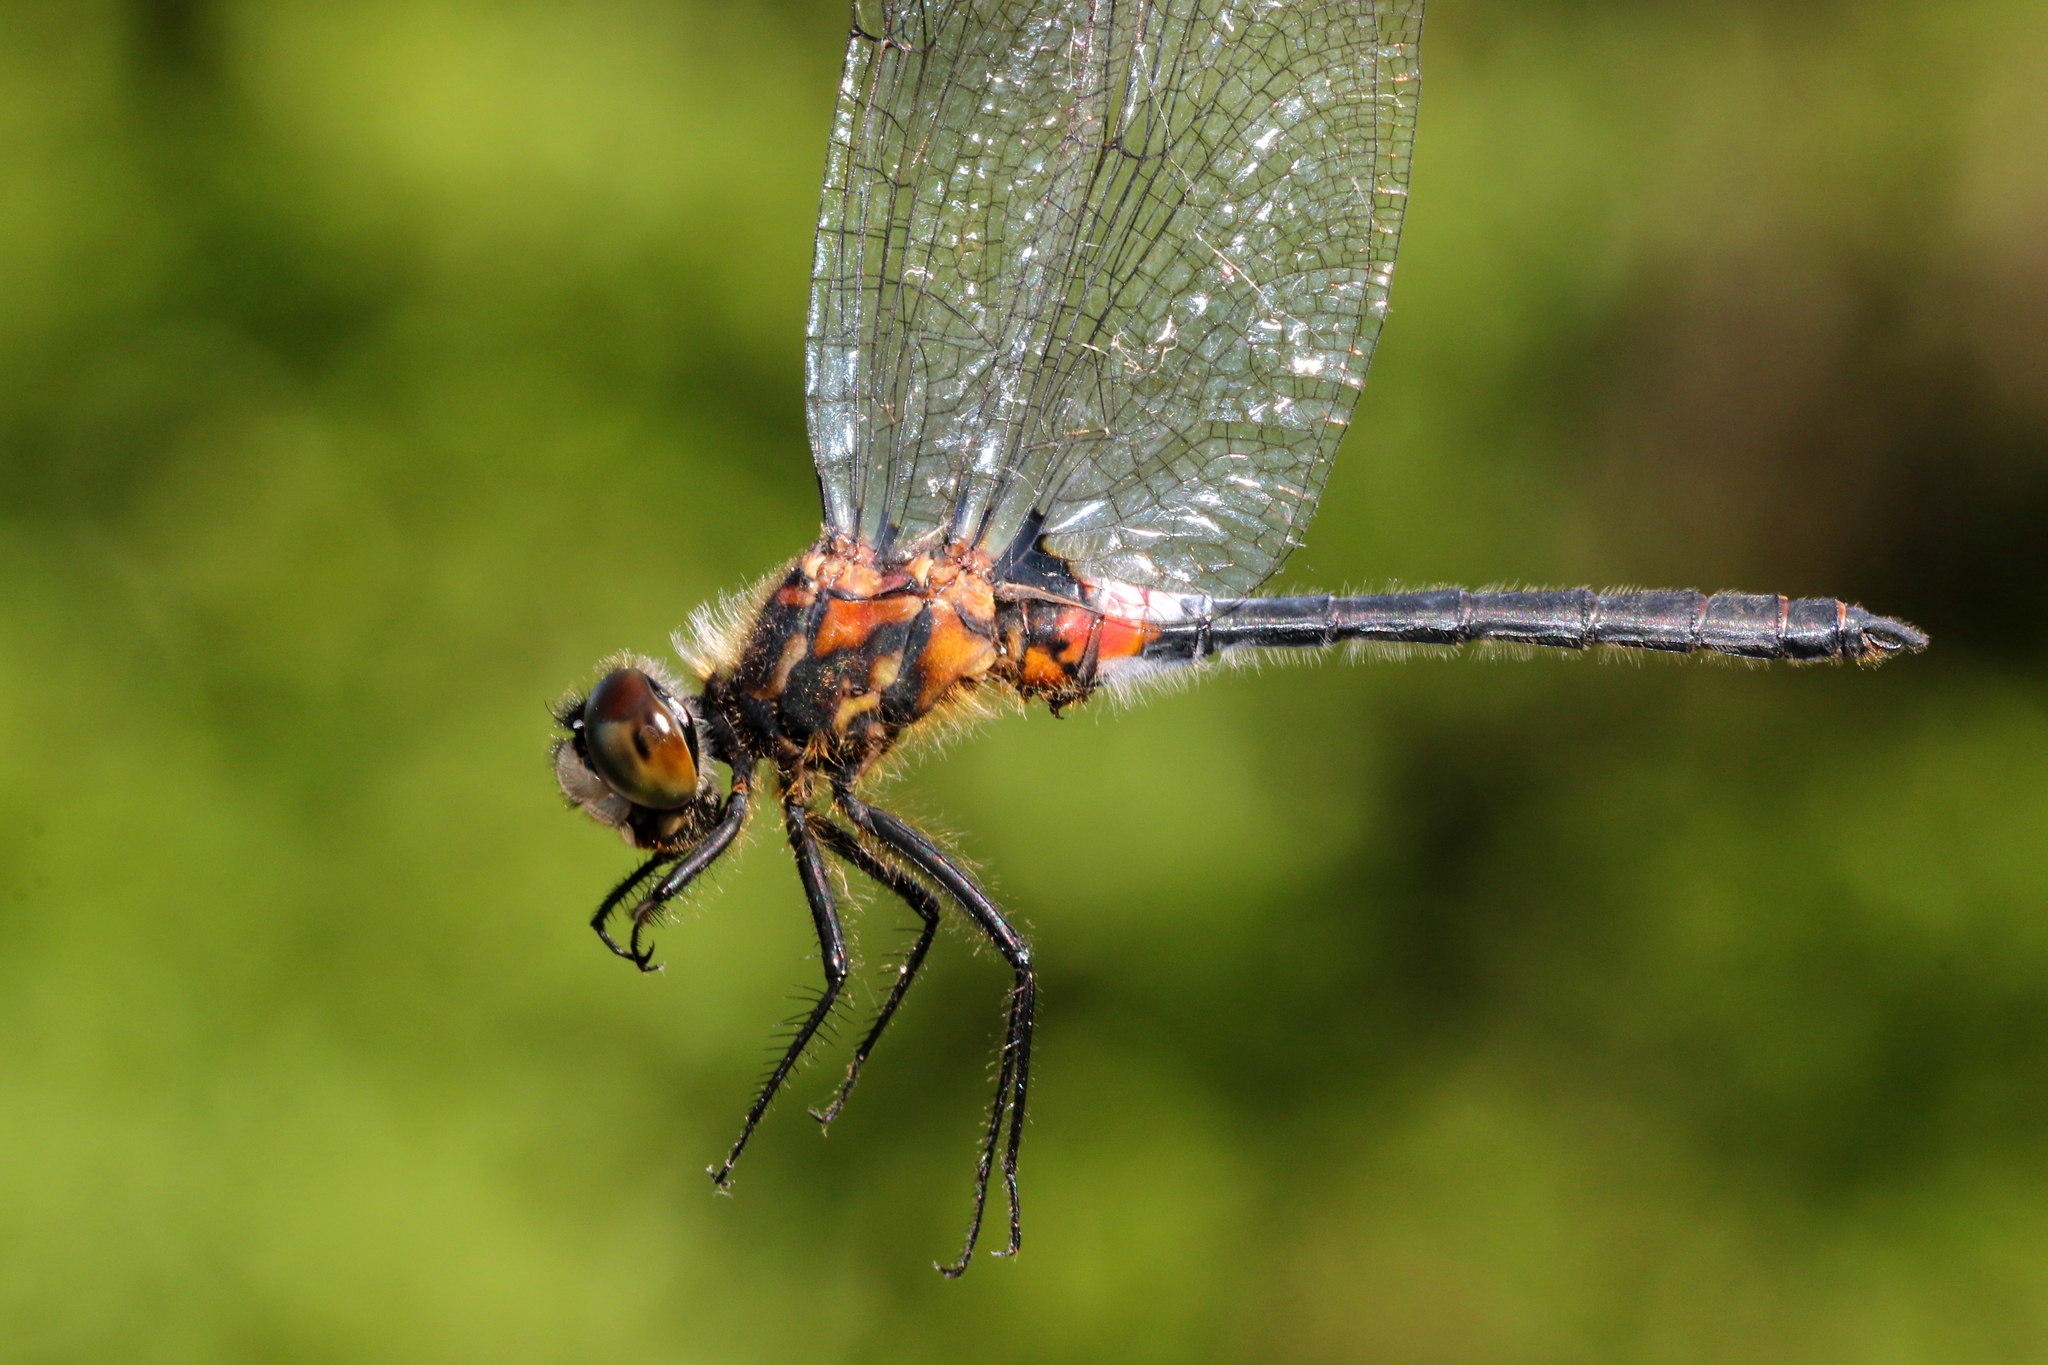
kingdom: Animalia
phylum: Arthropoda
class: Insecta
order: Odonata
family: Libellulidae
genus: Leucorrhinia
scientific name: Leucorrhinia proxima
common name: Belted whiteface
